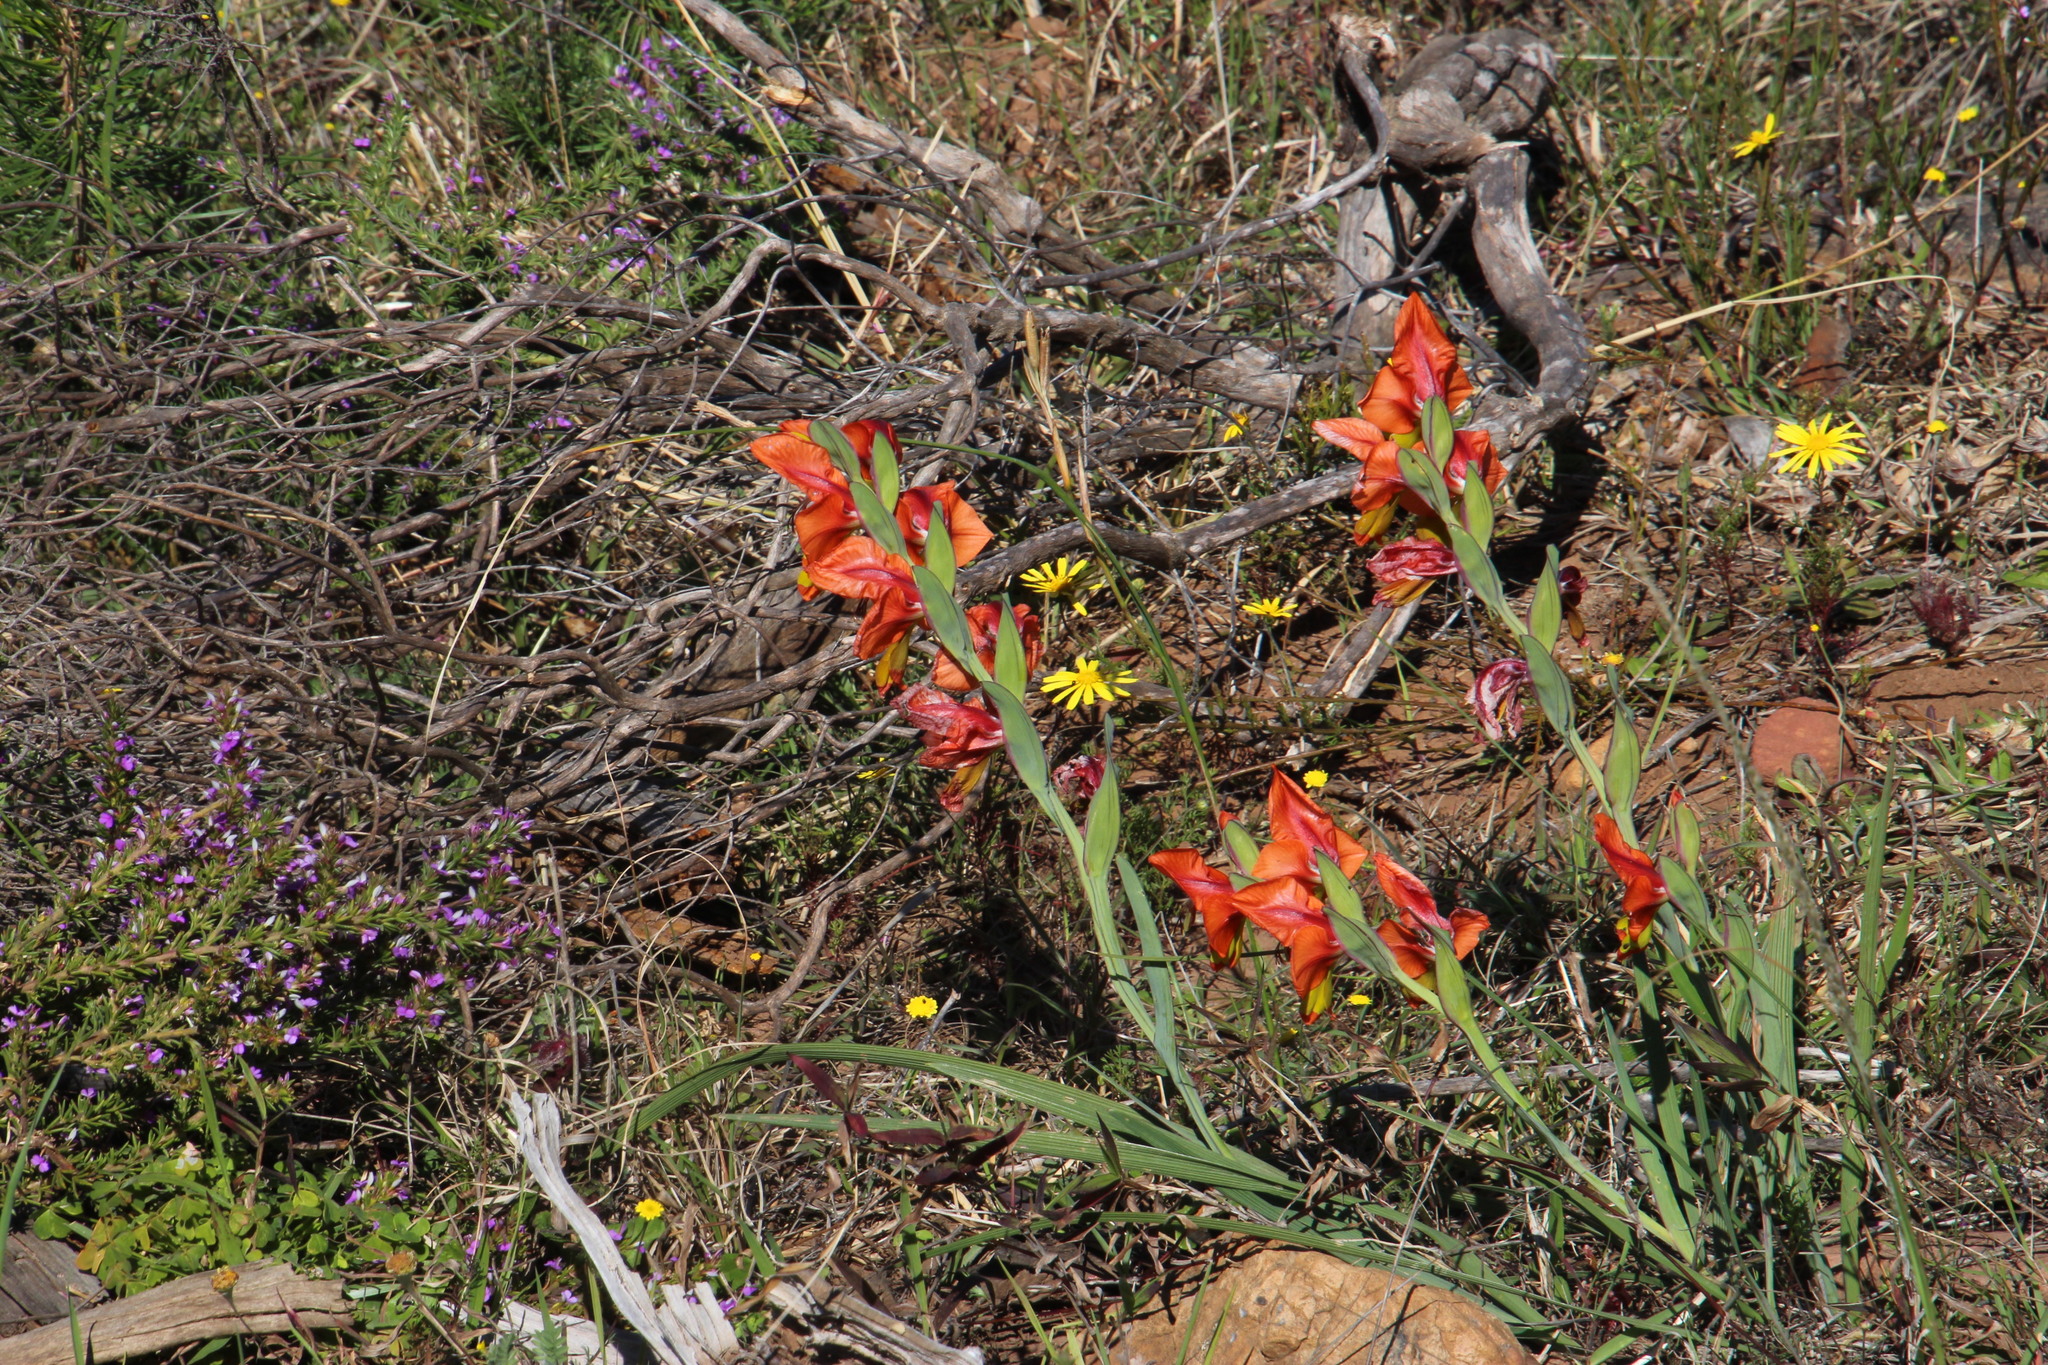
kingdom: Plantae
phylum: Tracheophyta
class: Liliopsida
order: Asparagales
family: Iridaceae
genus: Gladiolus
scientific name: Gladiolus alatus
